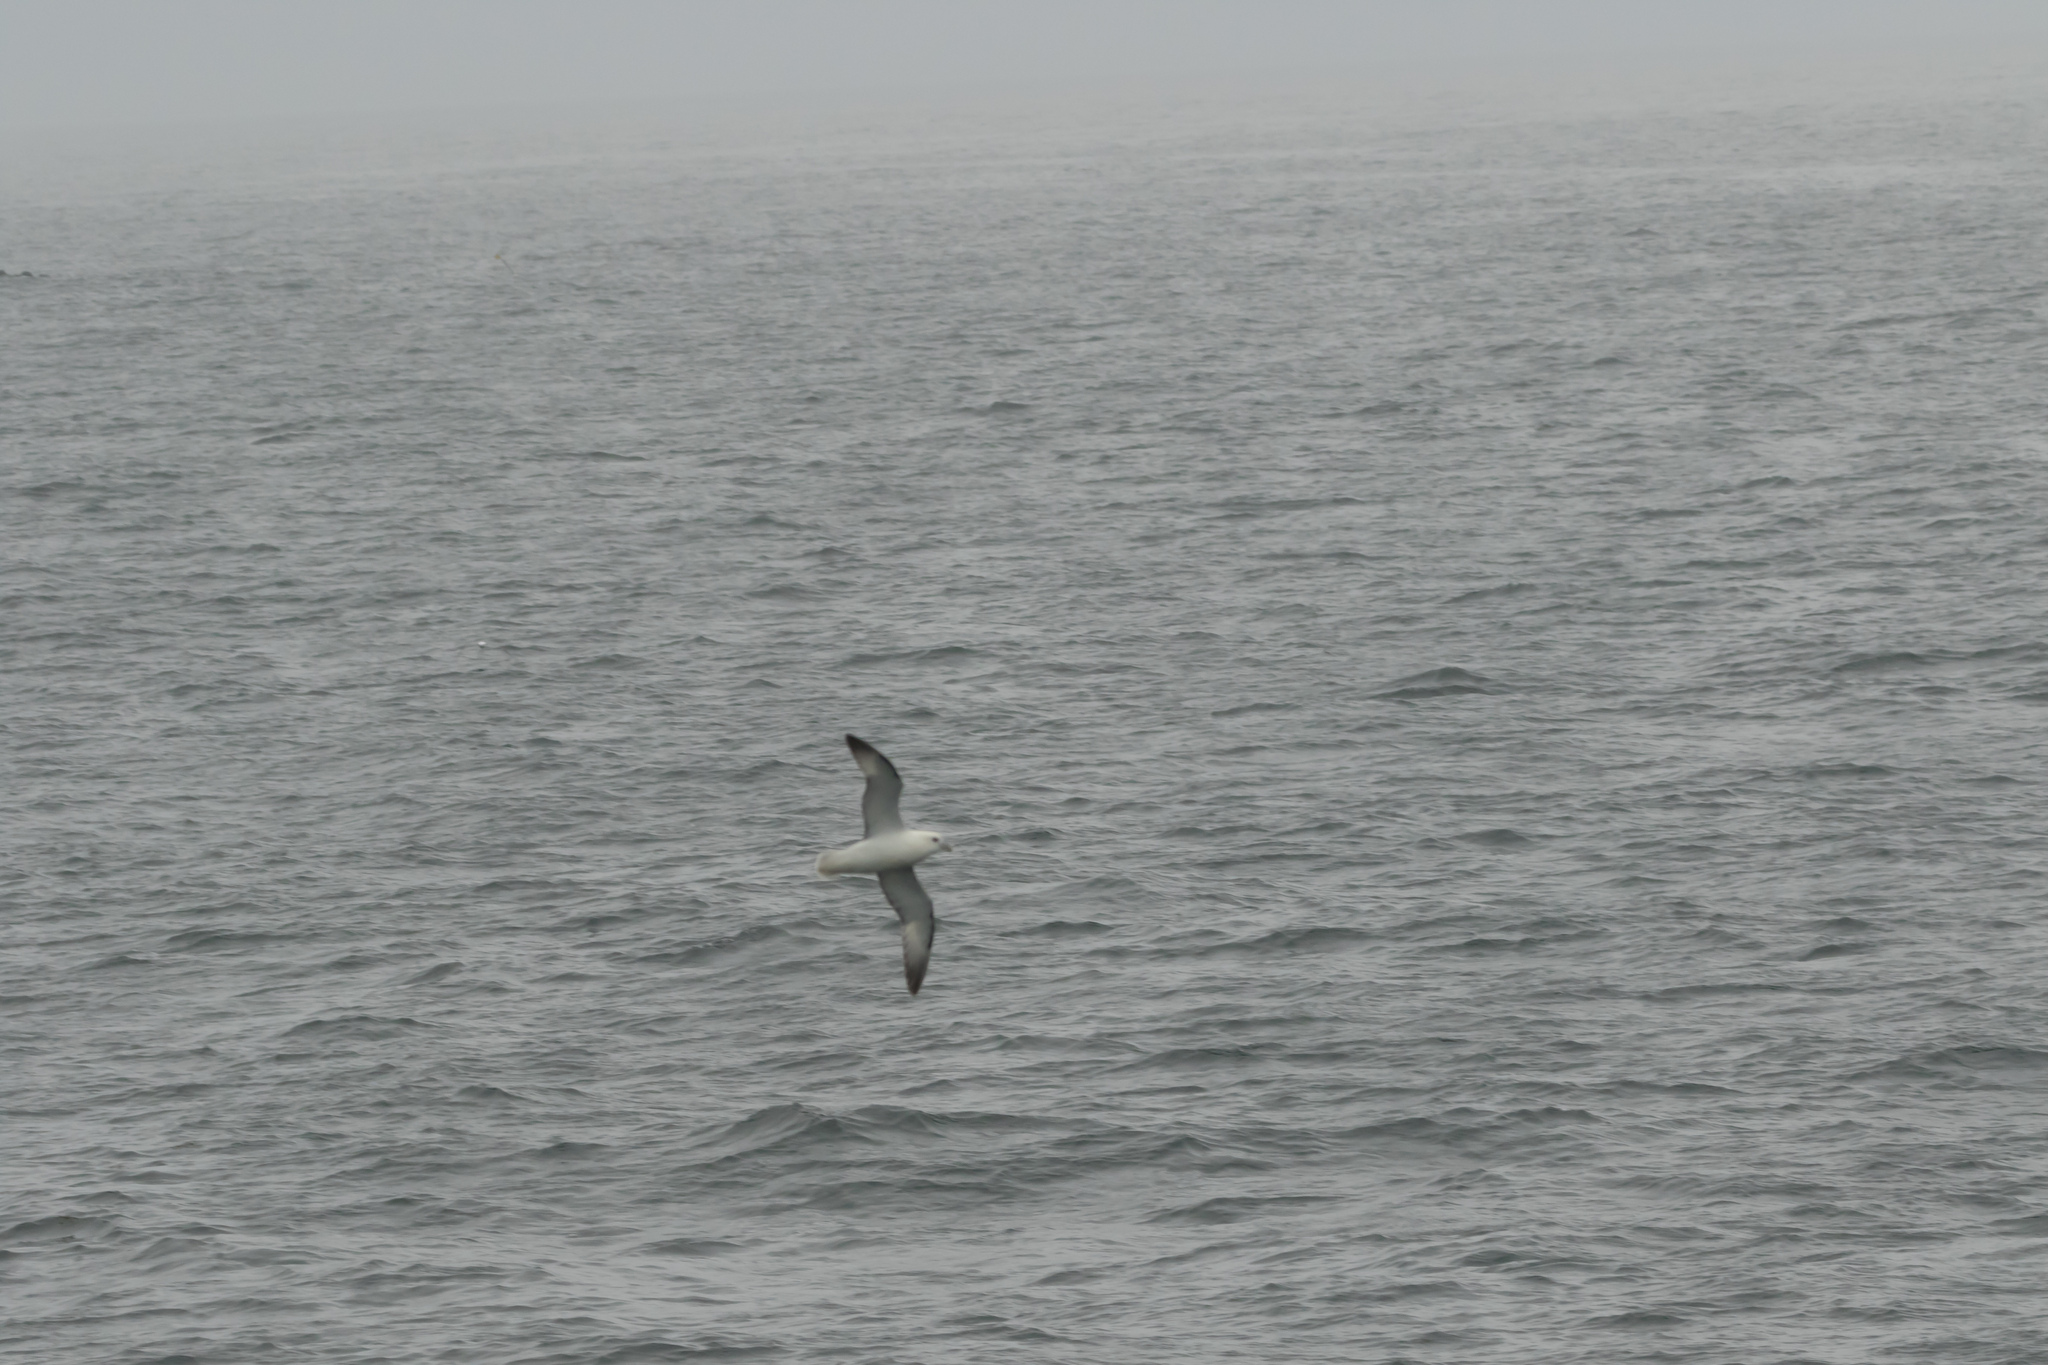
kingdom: Animalia
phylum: Chordata
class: Aves
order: Procellariiformes
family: Procellariidae
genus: Fulmarus
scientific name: Fulmarus glacialis
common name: Northern fulmar
